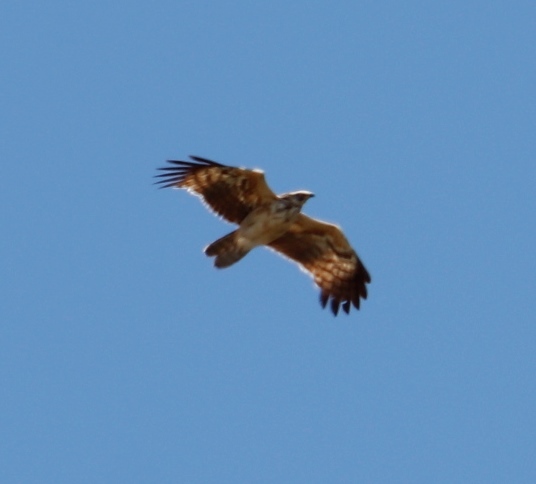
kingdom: Animalia
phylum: Chordata
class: Aves
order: Accipitriformes
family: Accipitridae
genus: Polyboroides
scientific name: Polyboroides typus
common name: African harrier-hawk
